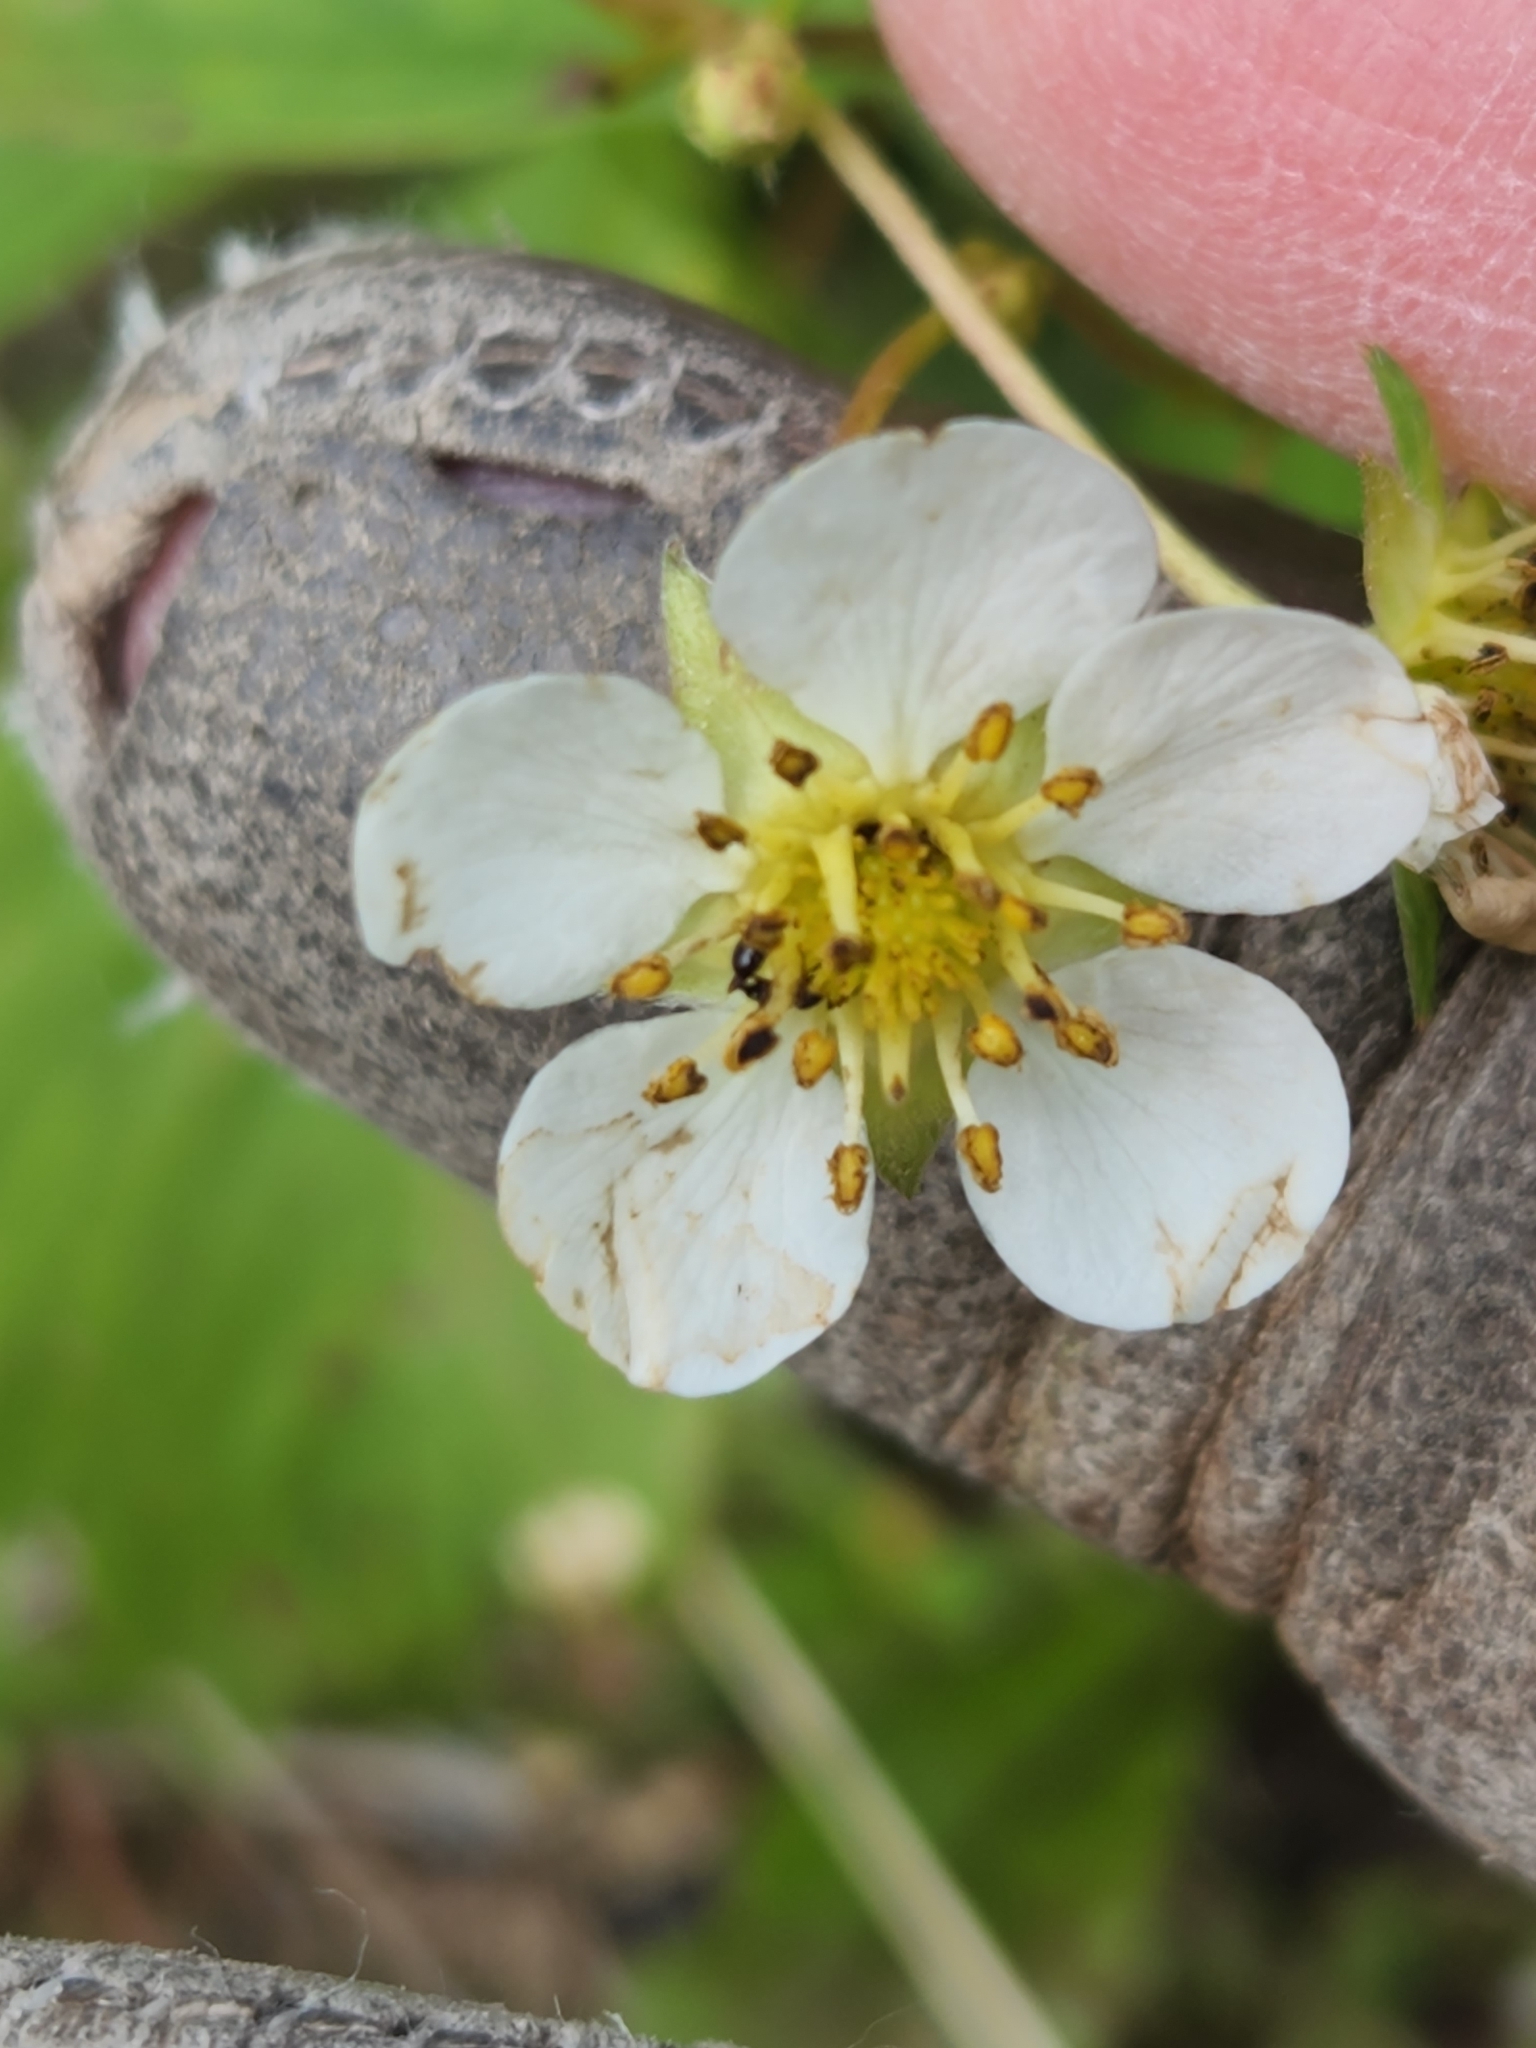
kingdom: Plantae
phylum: Tracheophyta
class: Magnoliopsida
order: Rosales
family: Rosaceae
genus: Fragaria
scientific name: Fragaria virginiana
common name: Thickleaved wild strawberry
